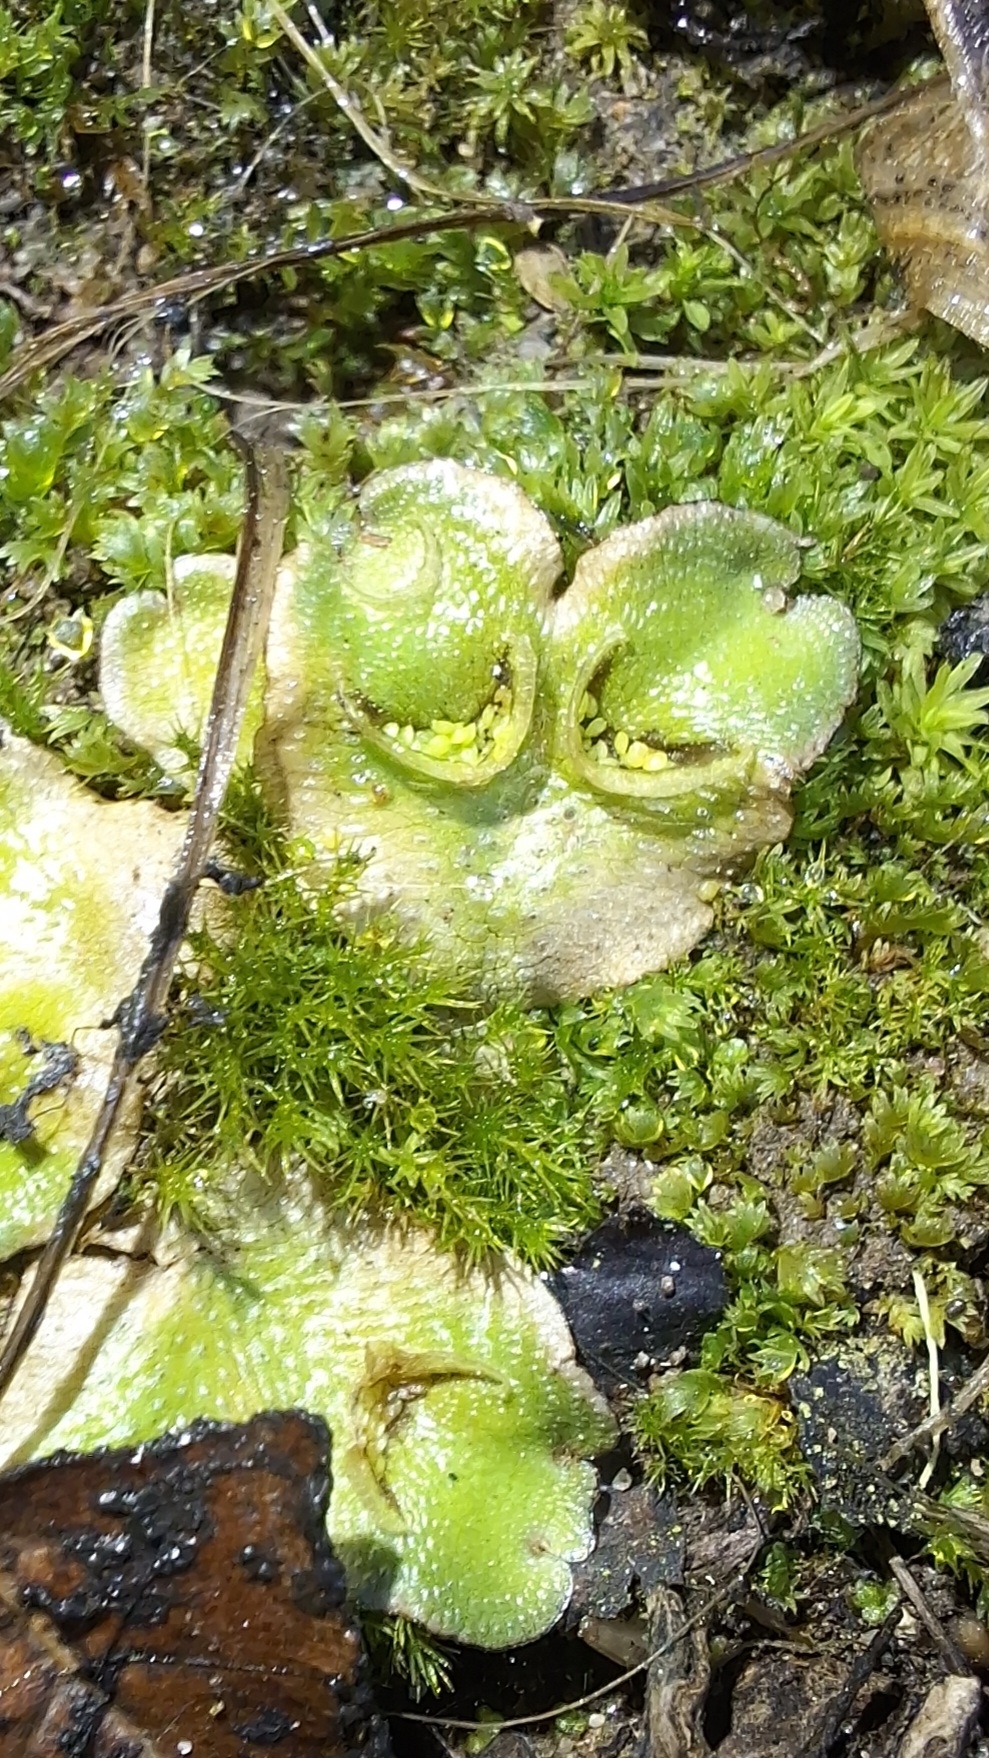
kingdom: Plantae
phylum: Marchantiophyta
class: Marchantiopsida
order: Lunulariales
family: Lunulariaceae
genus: Lunularia
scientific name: Lunularia cruciata
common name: Crescent-cup liverwort
